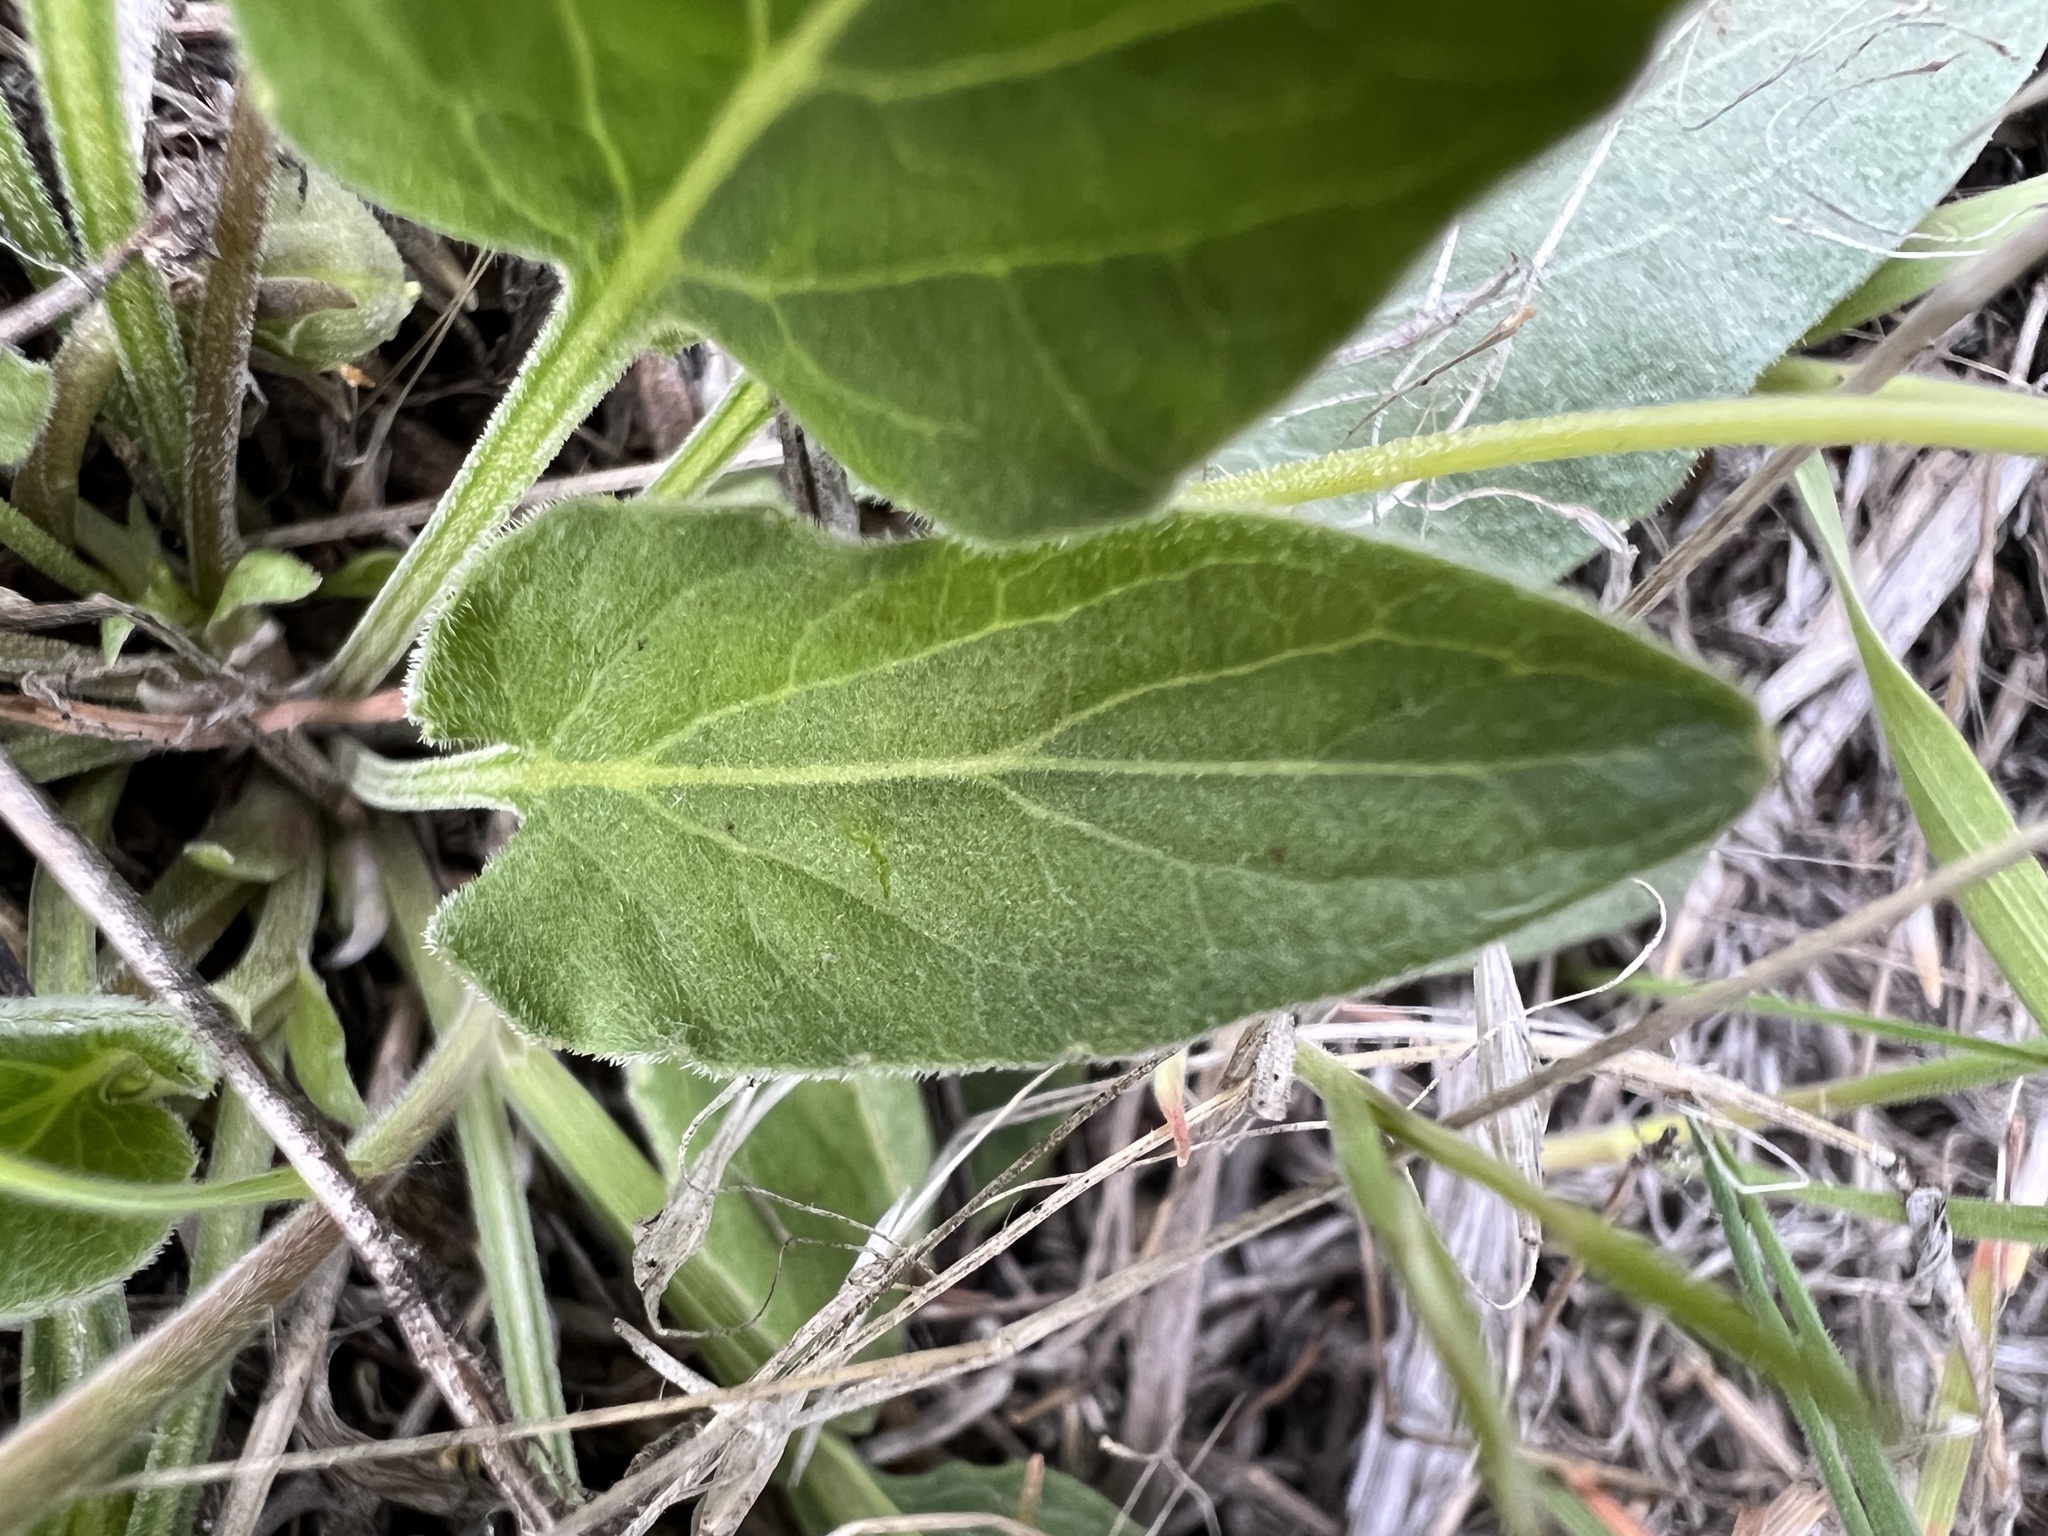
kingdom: Plantae
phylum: Tracheophyta
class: Magnoliopsida
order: Malpighiales
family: Violaceae
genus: Viola
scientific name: Viola vallicola
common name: Valley violet
